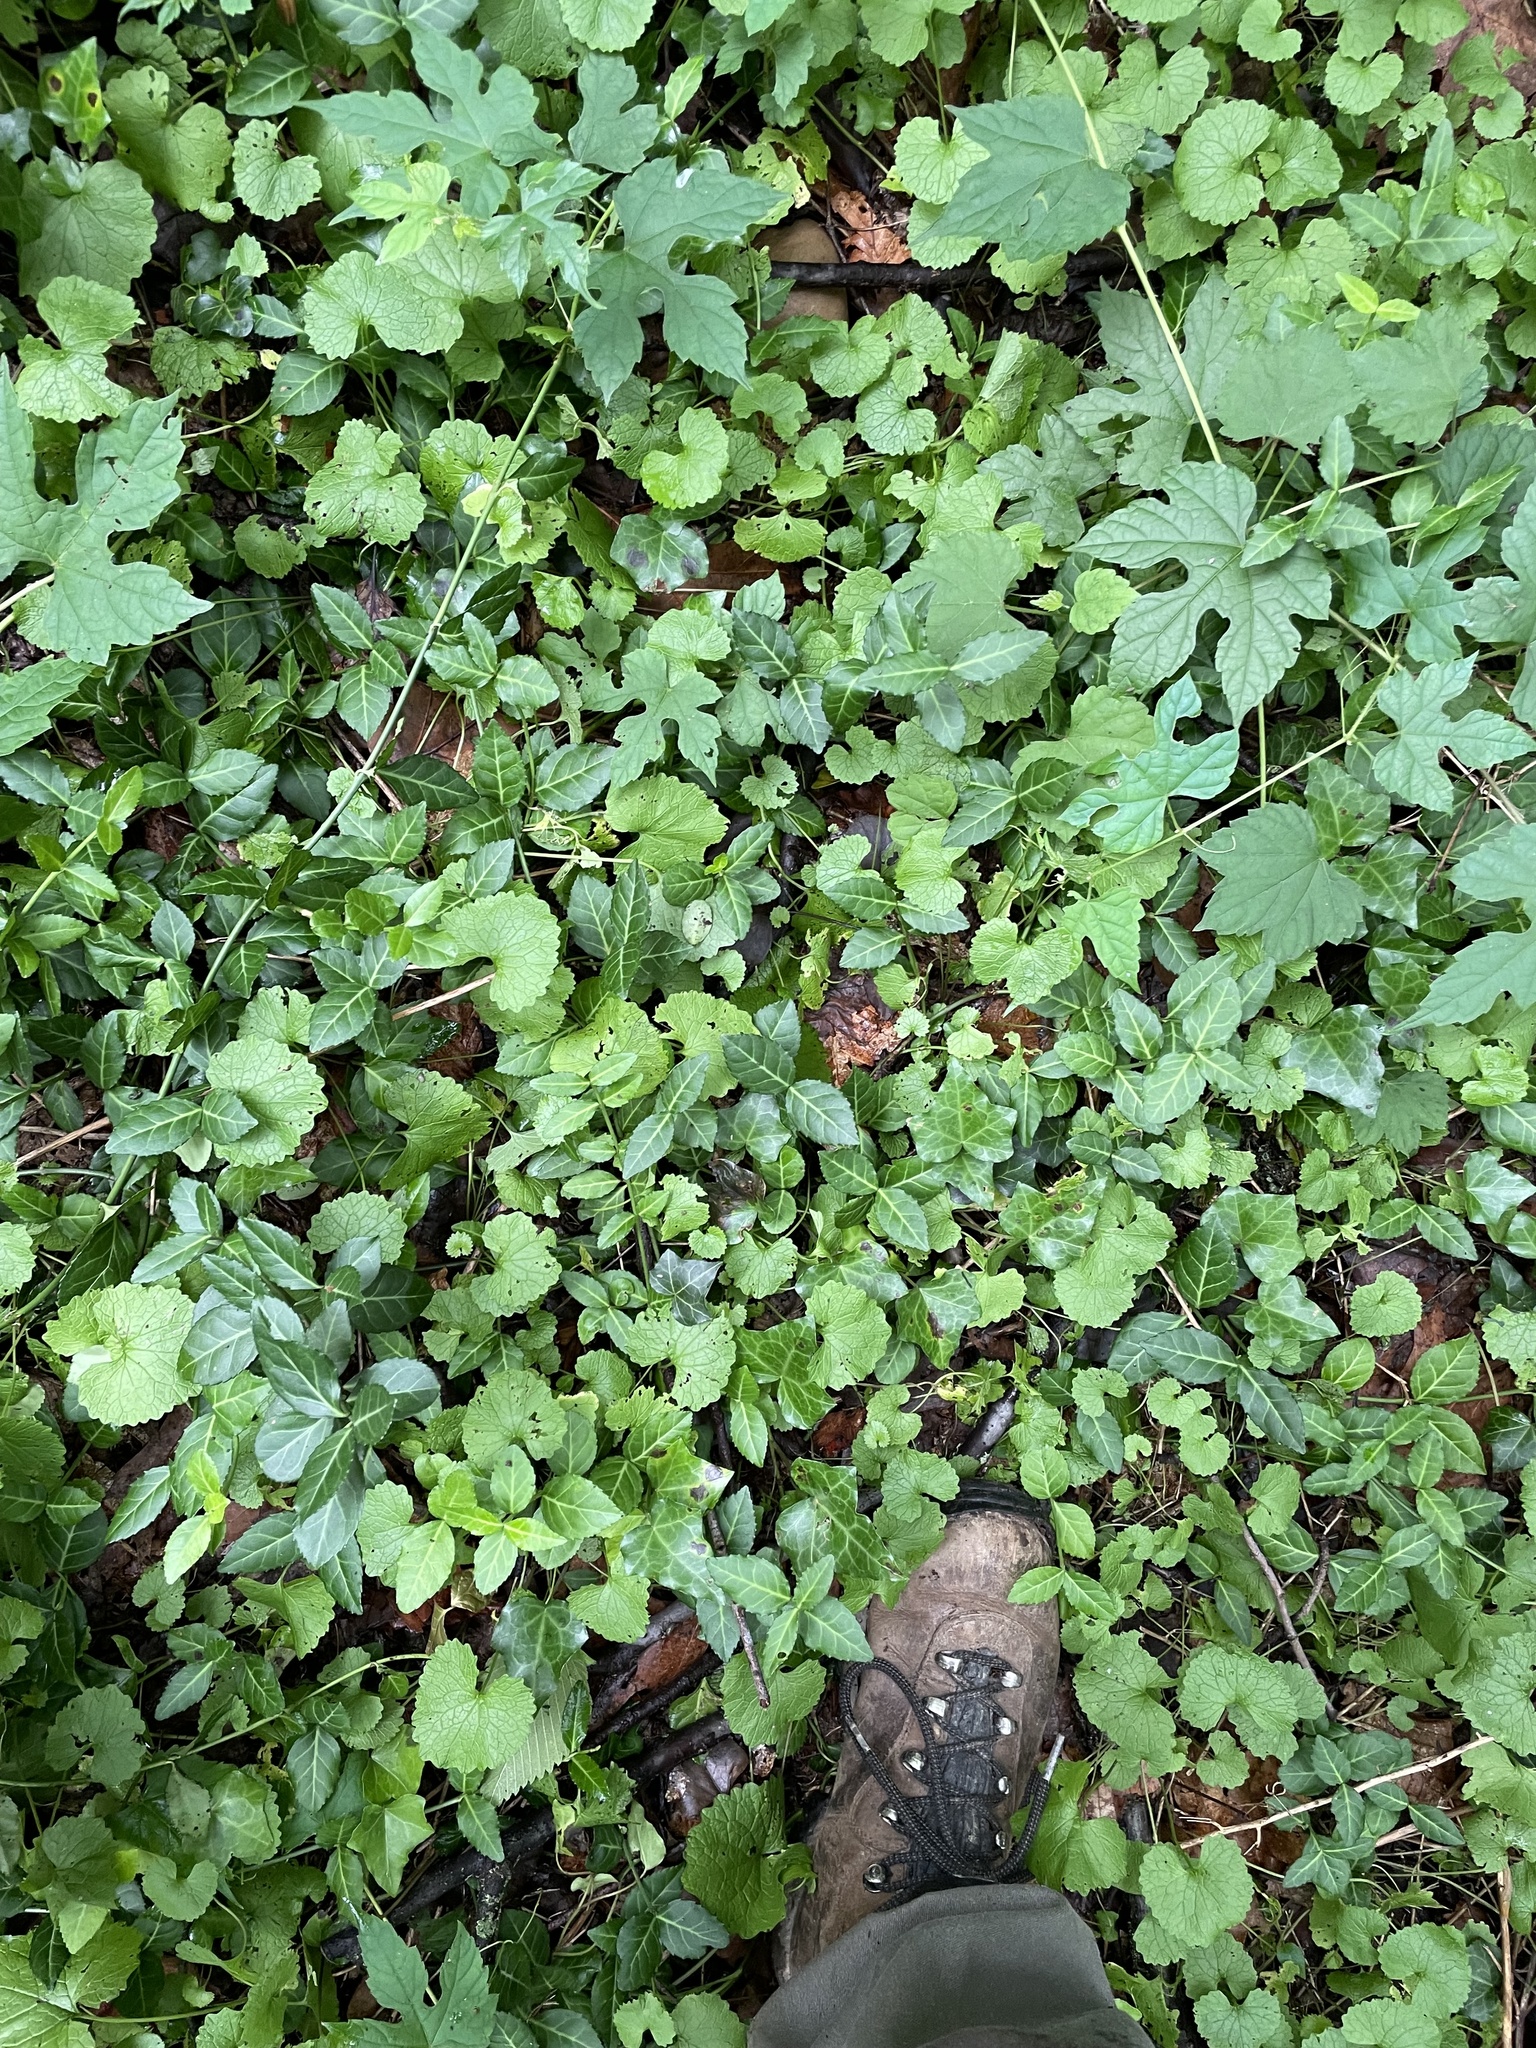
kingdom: Plantae
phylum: Tracheophyta
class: Magnoliopsida
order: Celastrales
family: Celastraceae
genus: Euonymus
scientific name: Euonymus fortunei
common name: Climbing euonymus
